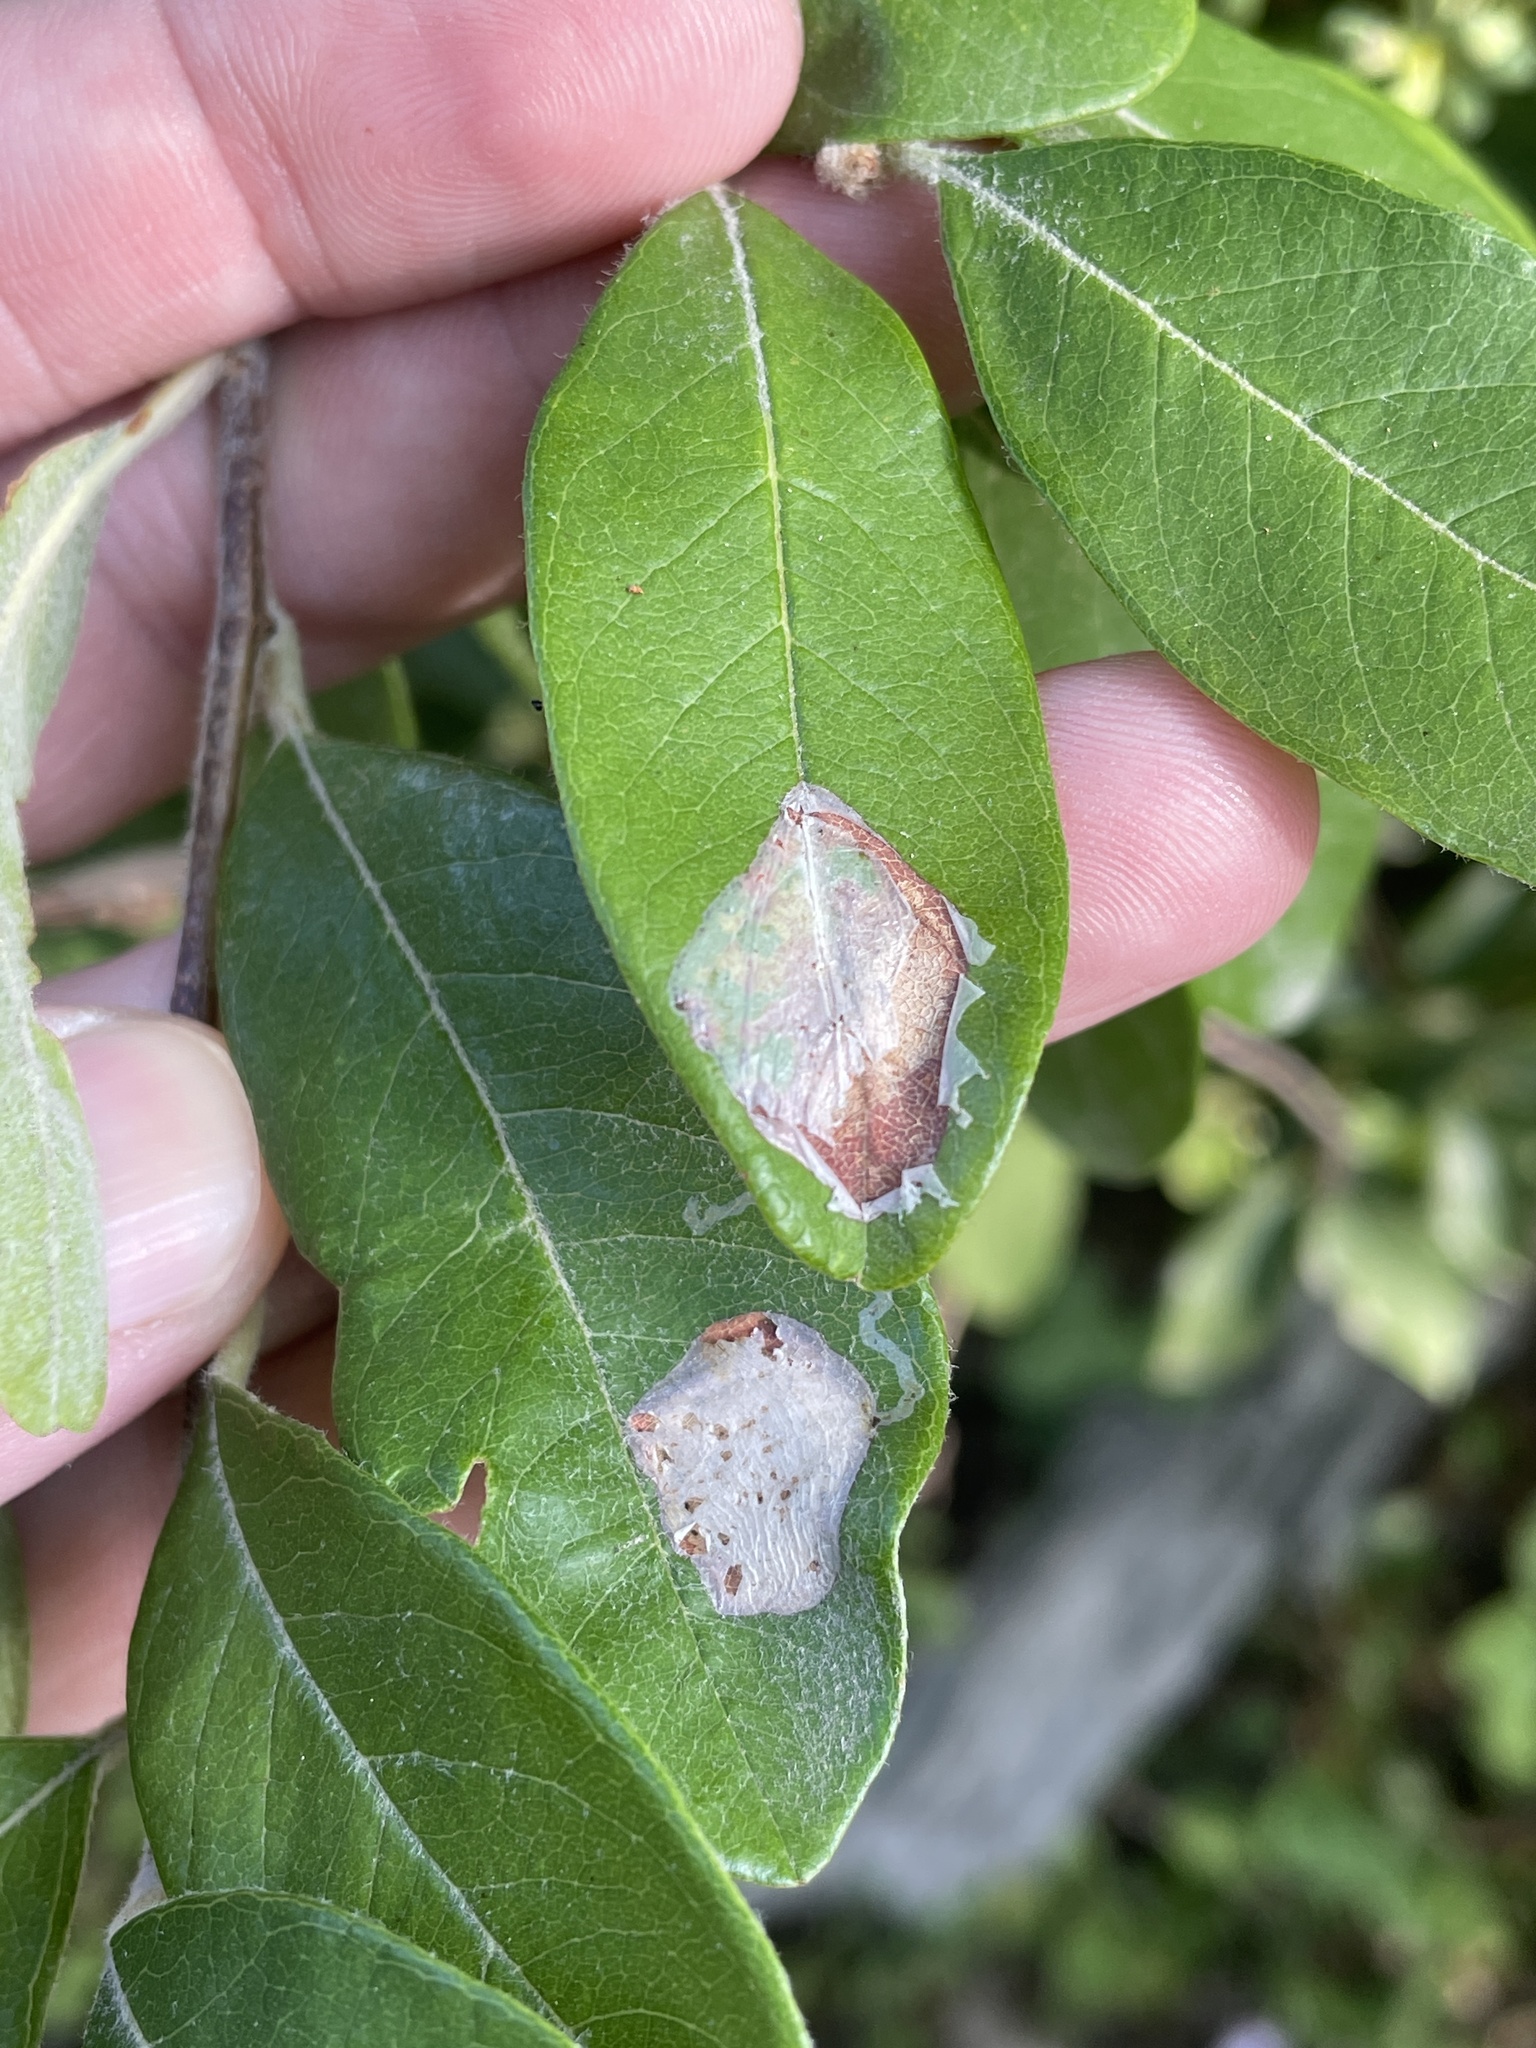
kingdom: Animalia
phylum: Arthropoda
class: Insecta
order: Lepidoptera
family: Gracillariidae
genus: Parectopa
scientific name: Parectopa bumeliella
